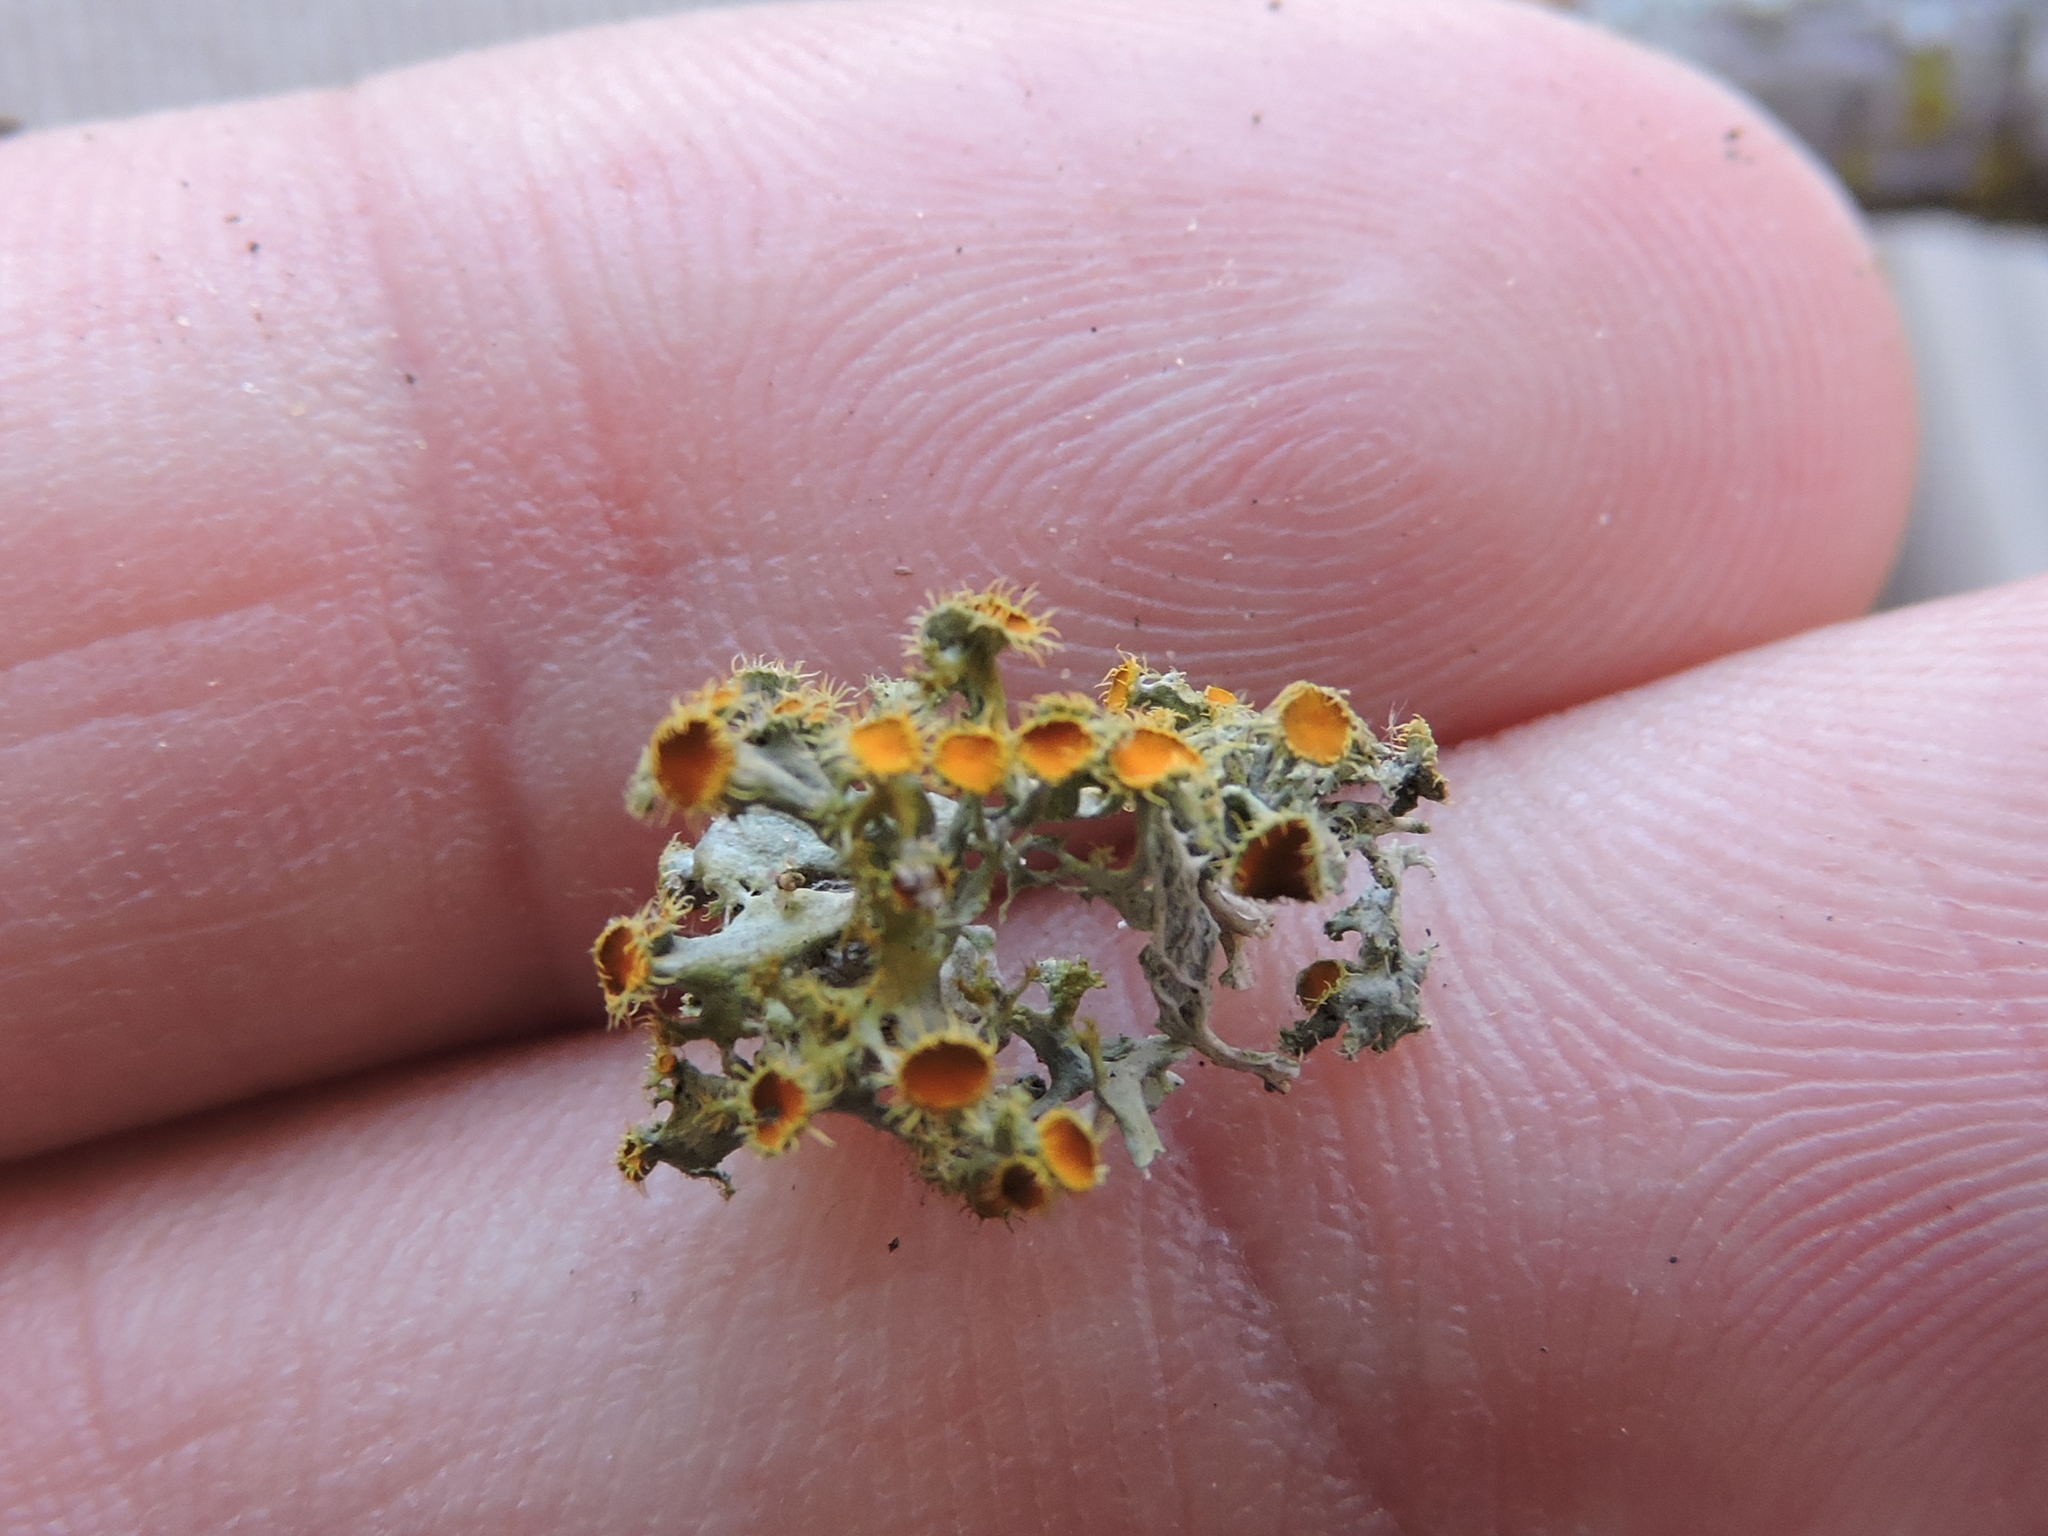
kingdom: Fungi
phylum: Ascomycota
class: Lecanoromycetes
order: Teloschistales
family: Teloschistaceae
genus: Niorma
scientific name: Niorma chrysophthalma
